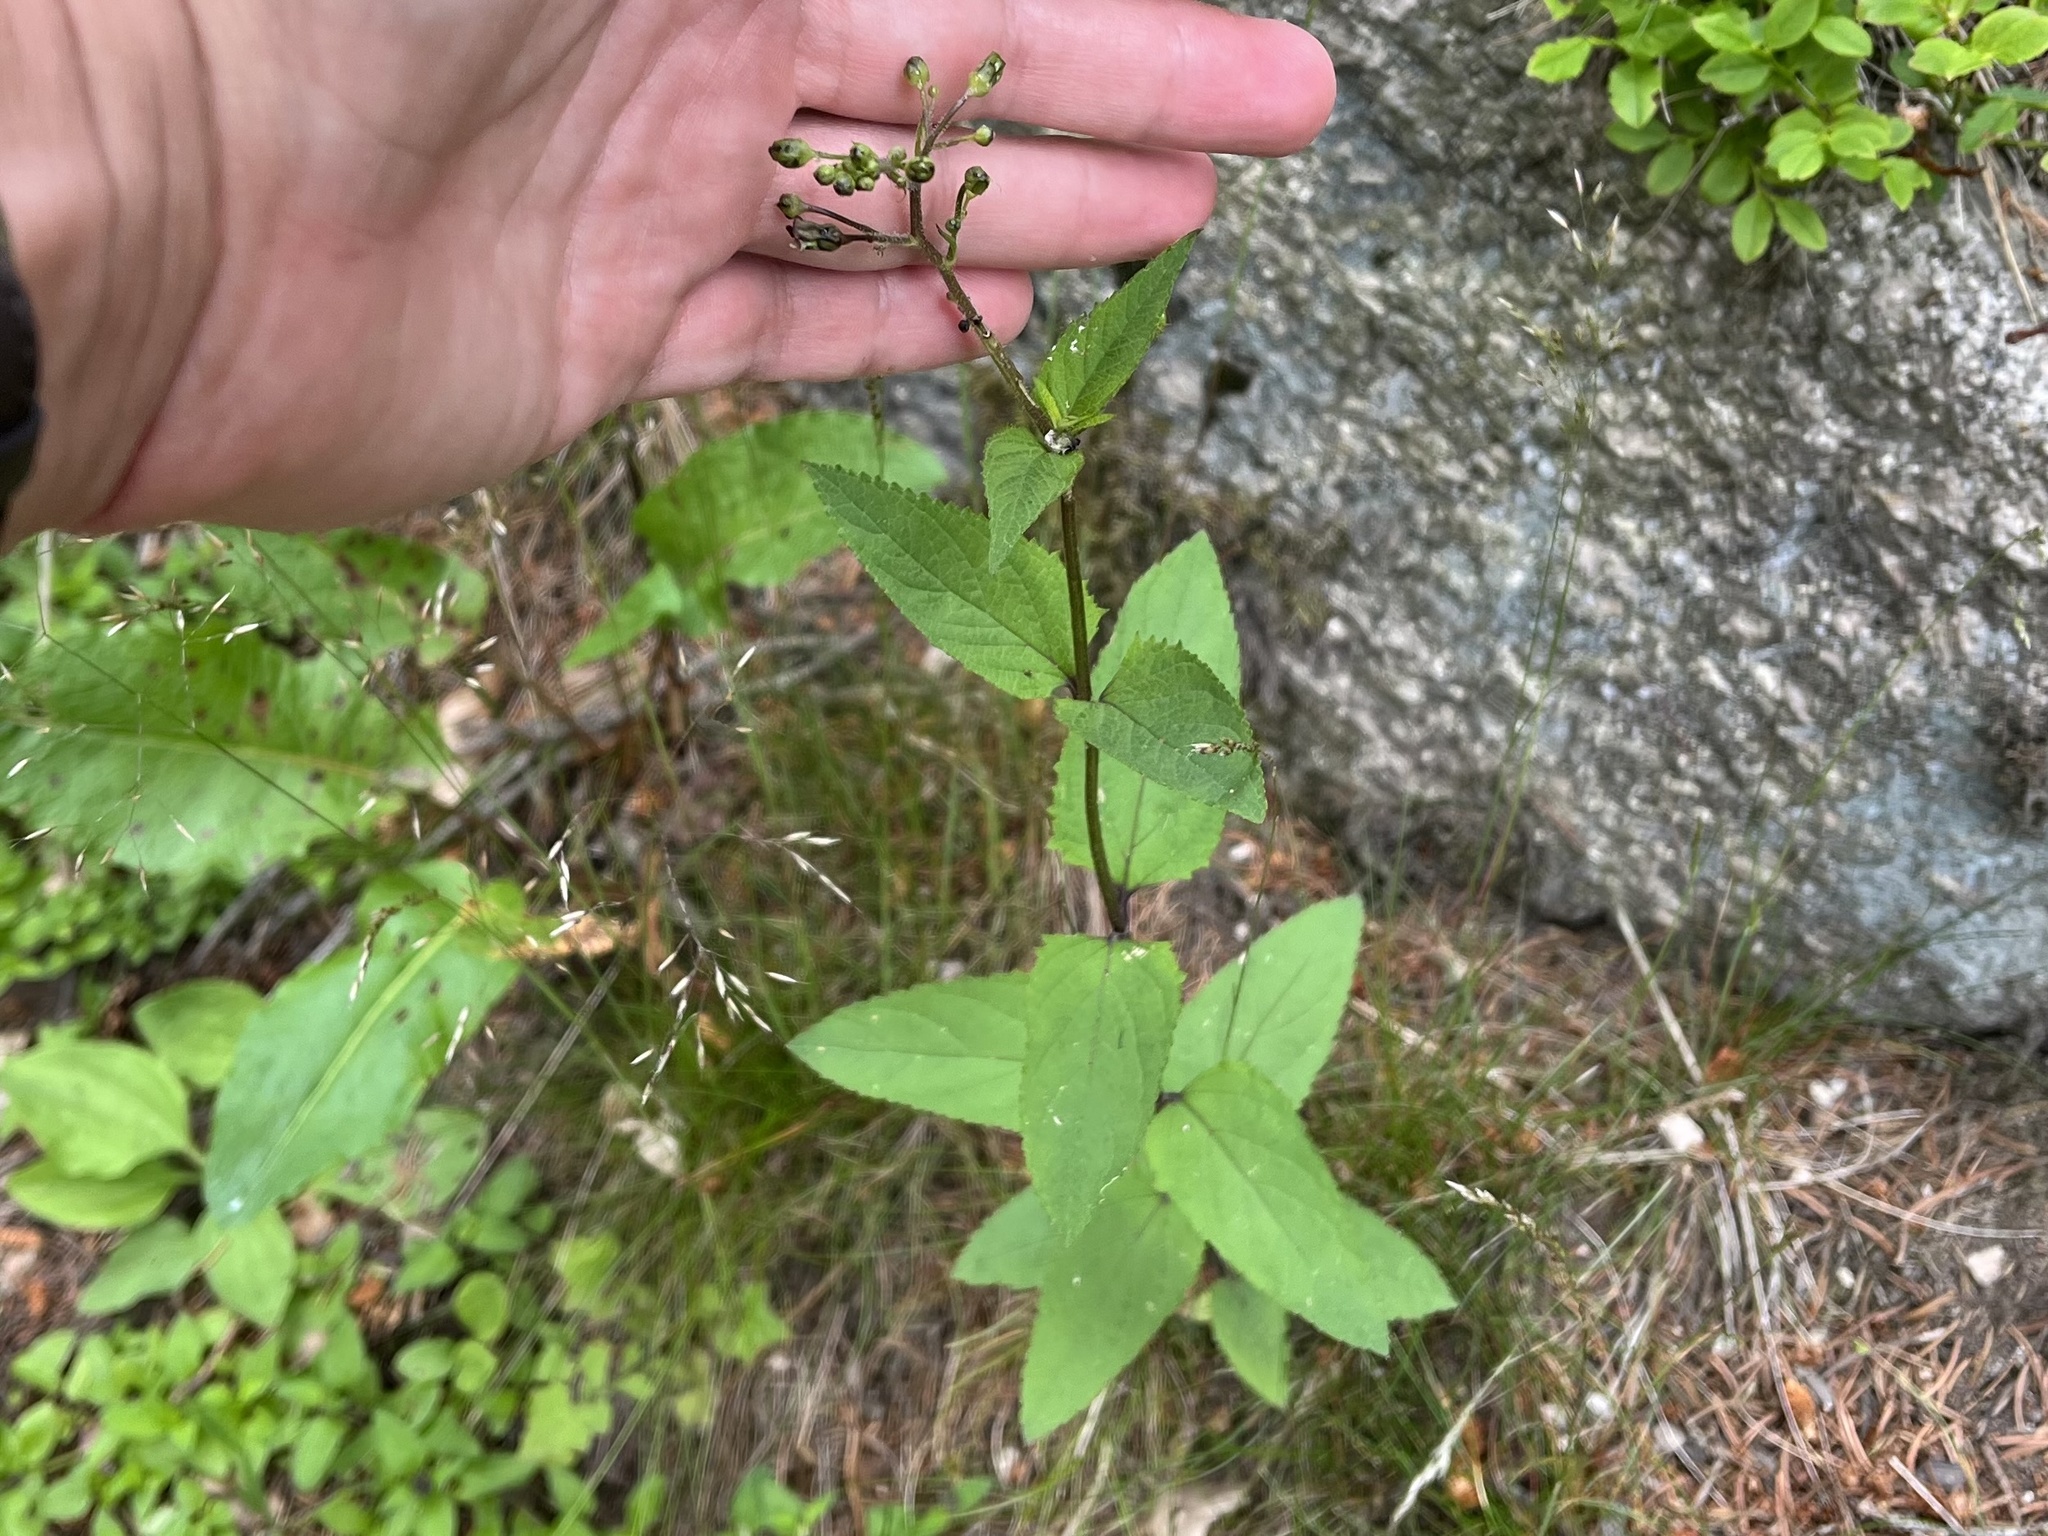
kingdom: Plantae
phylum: Tracheophyta
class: Magnoliopsida
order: Lamiales
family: Scrophulariaceae
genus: Scrophularia
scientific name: Scrophularia nodosa
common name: Common figwort
